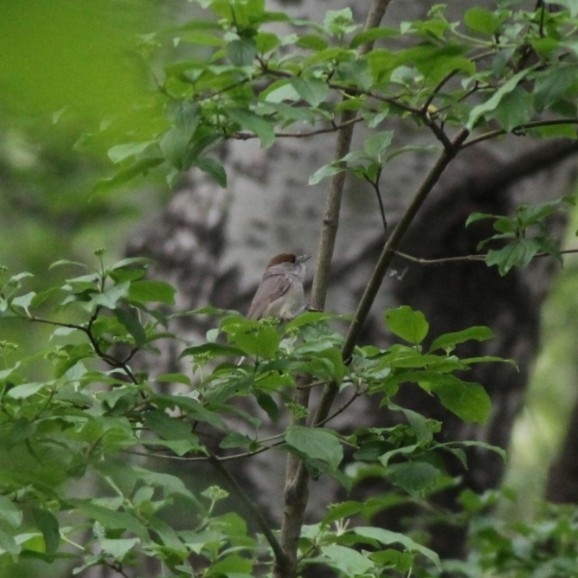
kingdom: Animalia
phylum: Chordata
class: Aves
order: Passeriformes
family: Sylviidae
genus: Sylvia
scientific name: Sylvia atricapilla
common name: Eurasian blackcap
